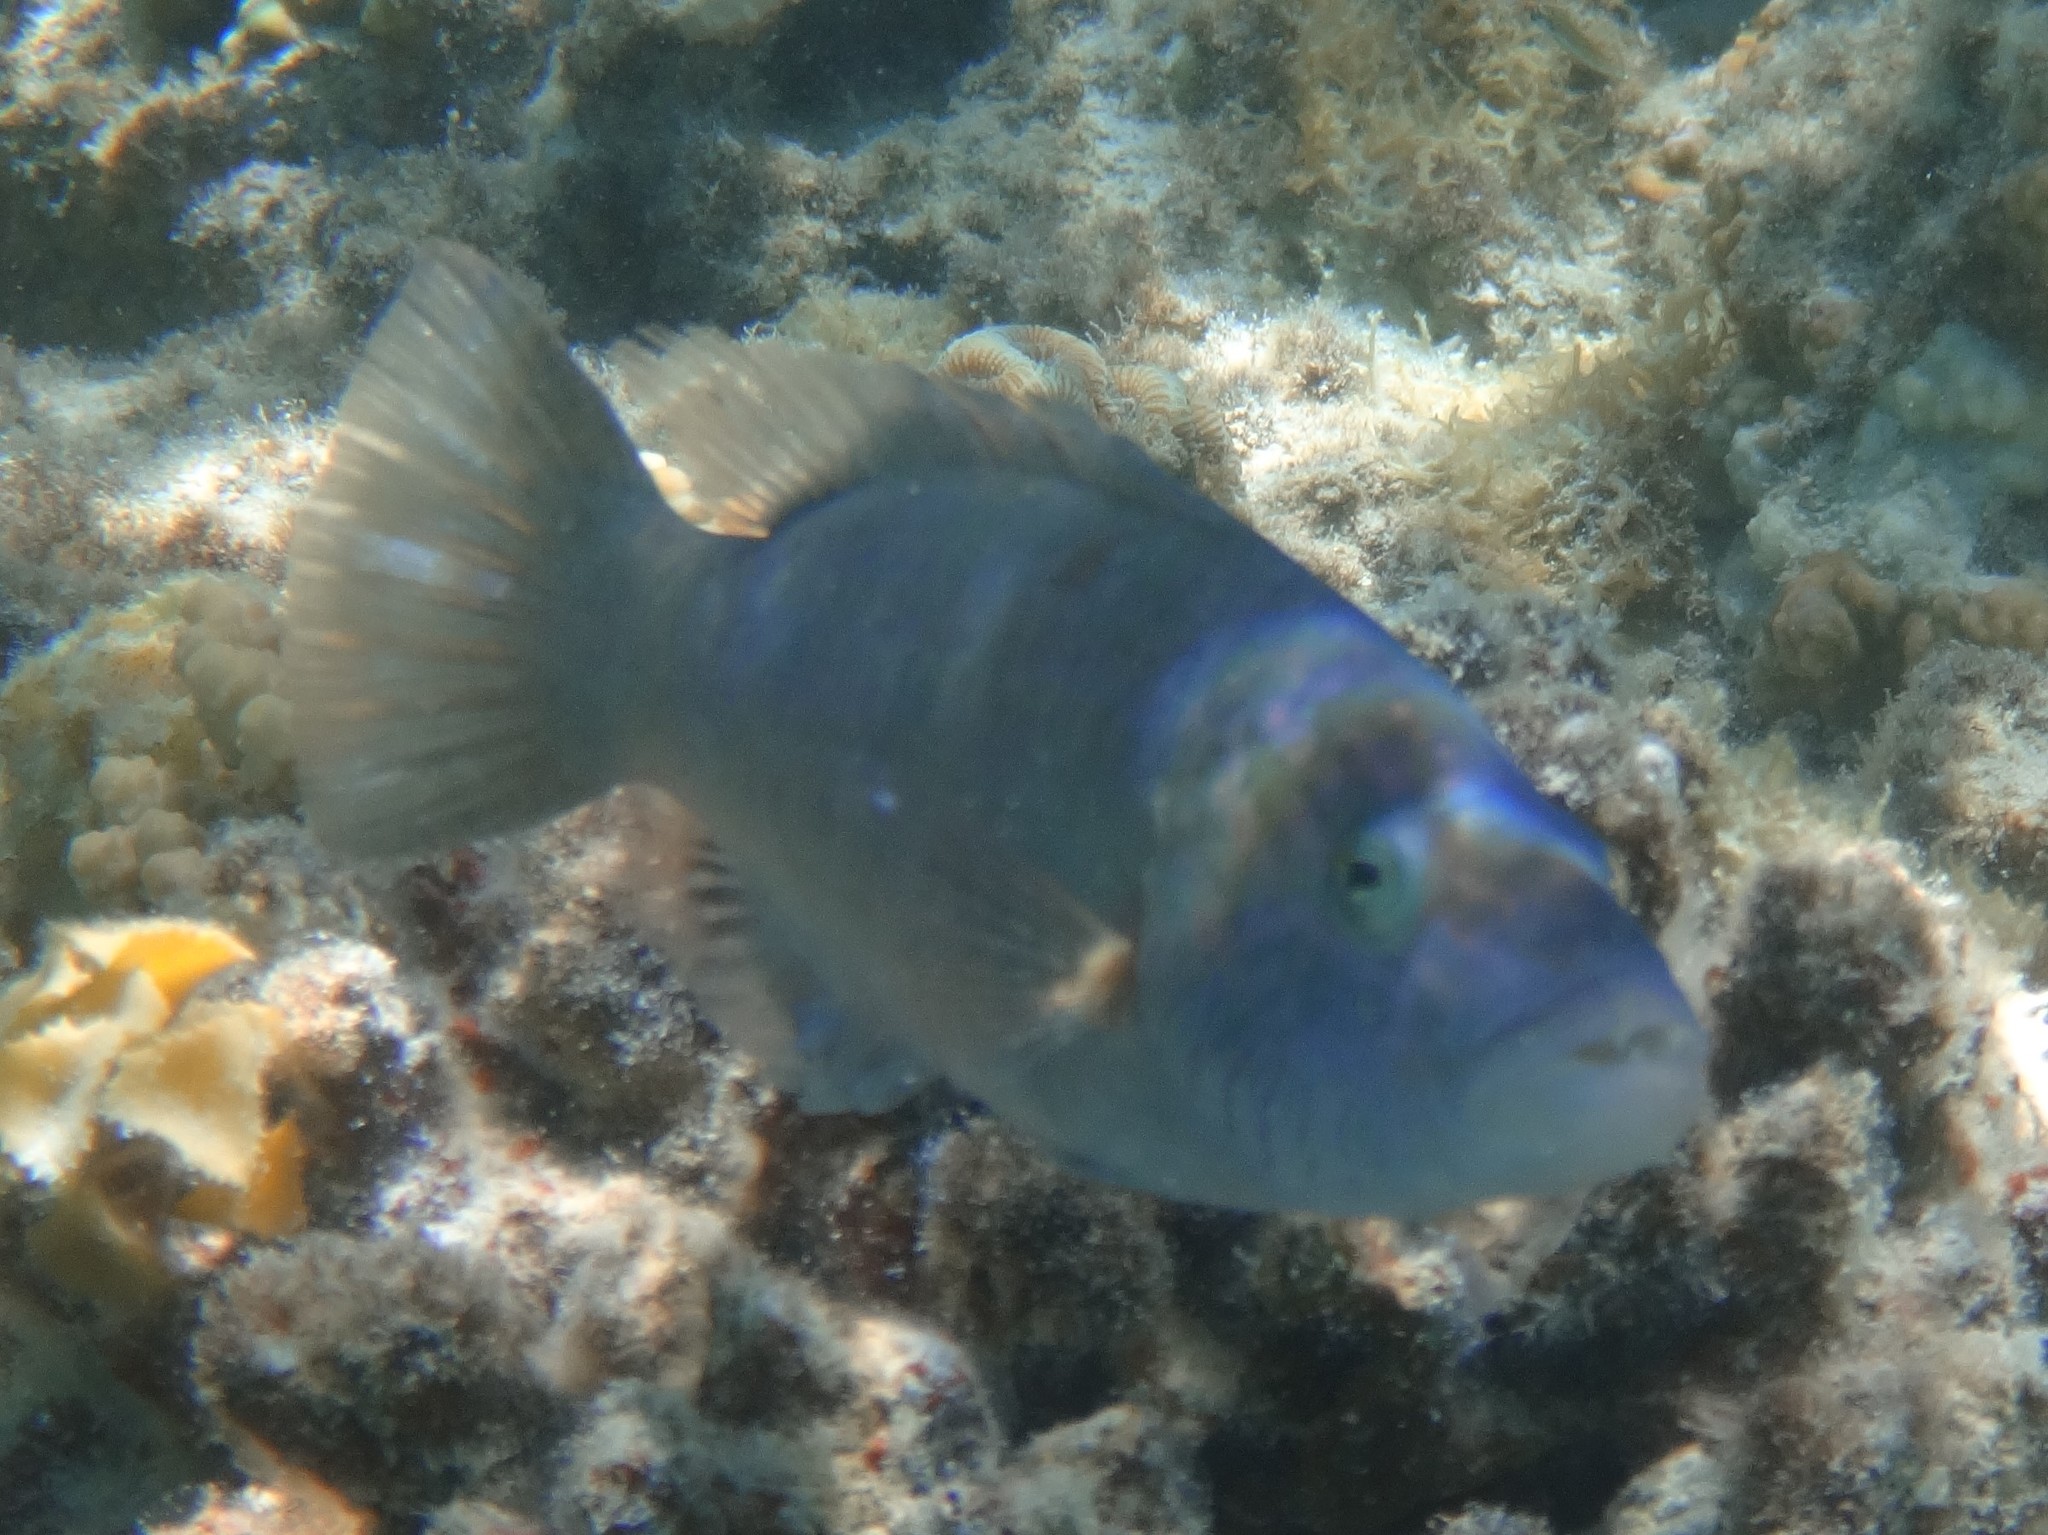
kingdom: Animalia
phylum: Chordata
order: Perciformes
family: Labridae
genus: Oxycheilinus
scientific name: Oxycheilinus digramma
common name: Bandcheek wrasse
